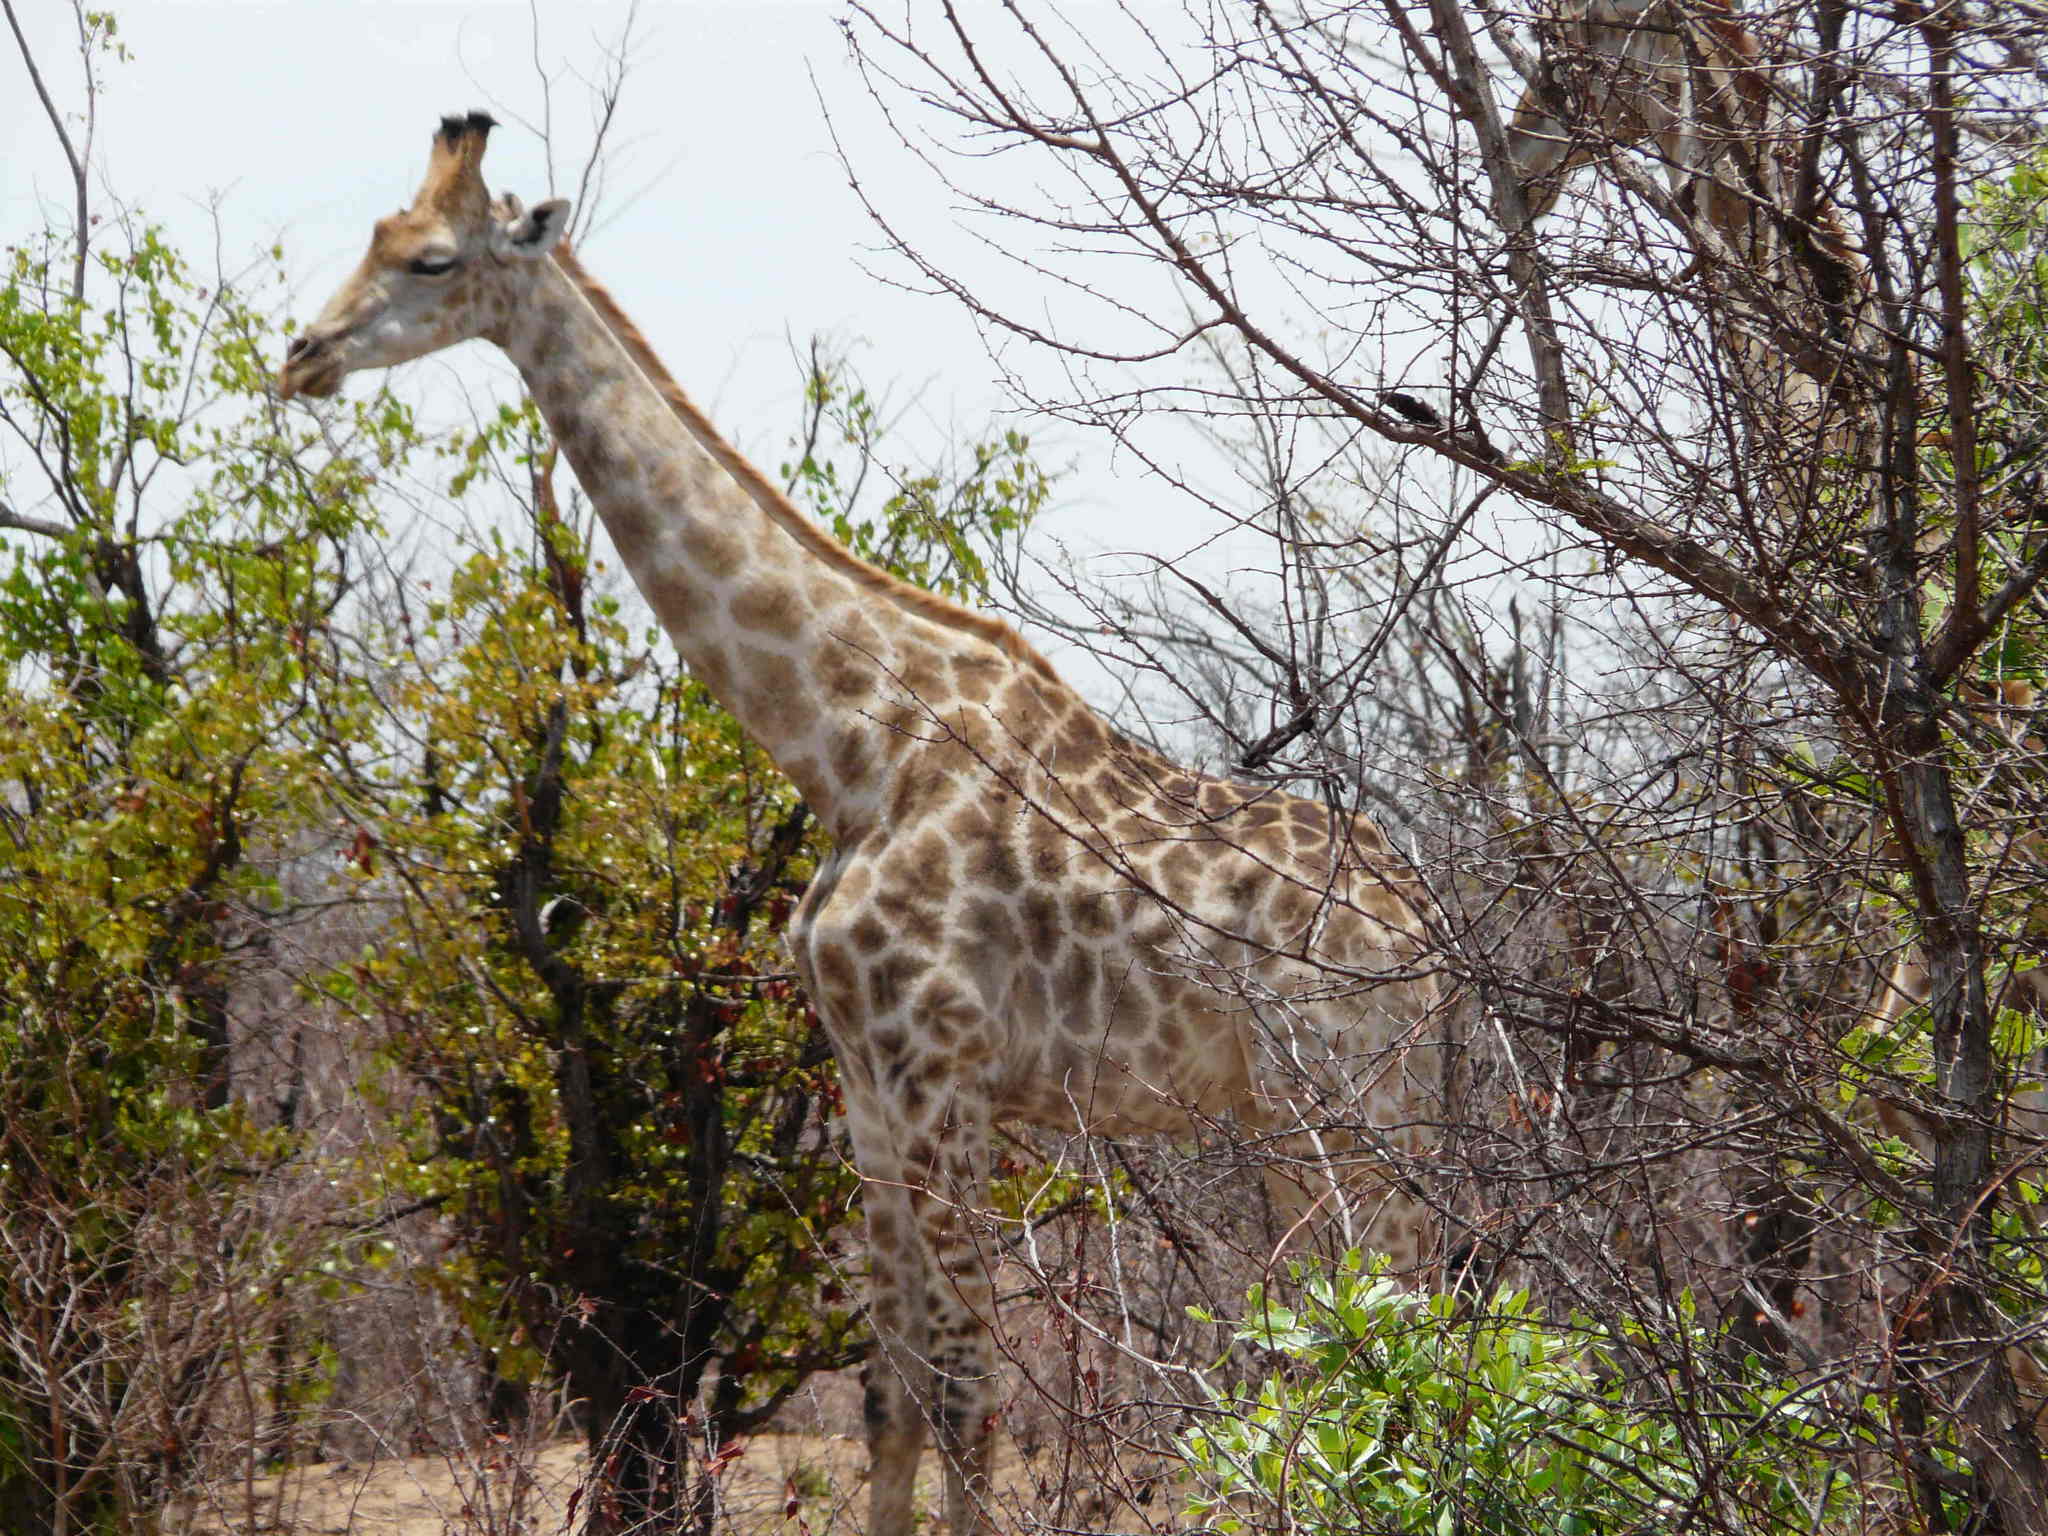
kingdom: Animalia
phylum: Chordata
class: Mammalia
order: Artiodactyla
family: Giraffidae
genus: Giraffa
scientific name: Giraffa giraffa
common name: Southern giraffe
